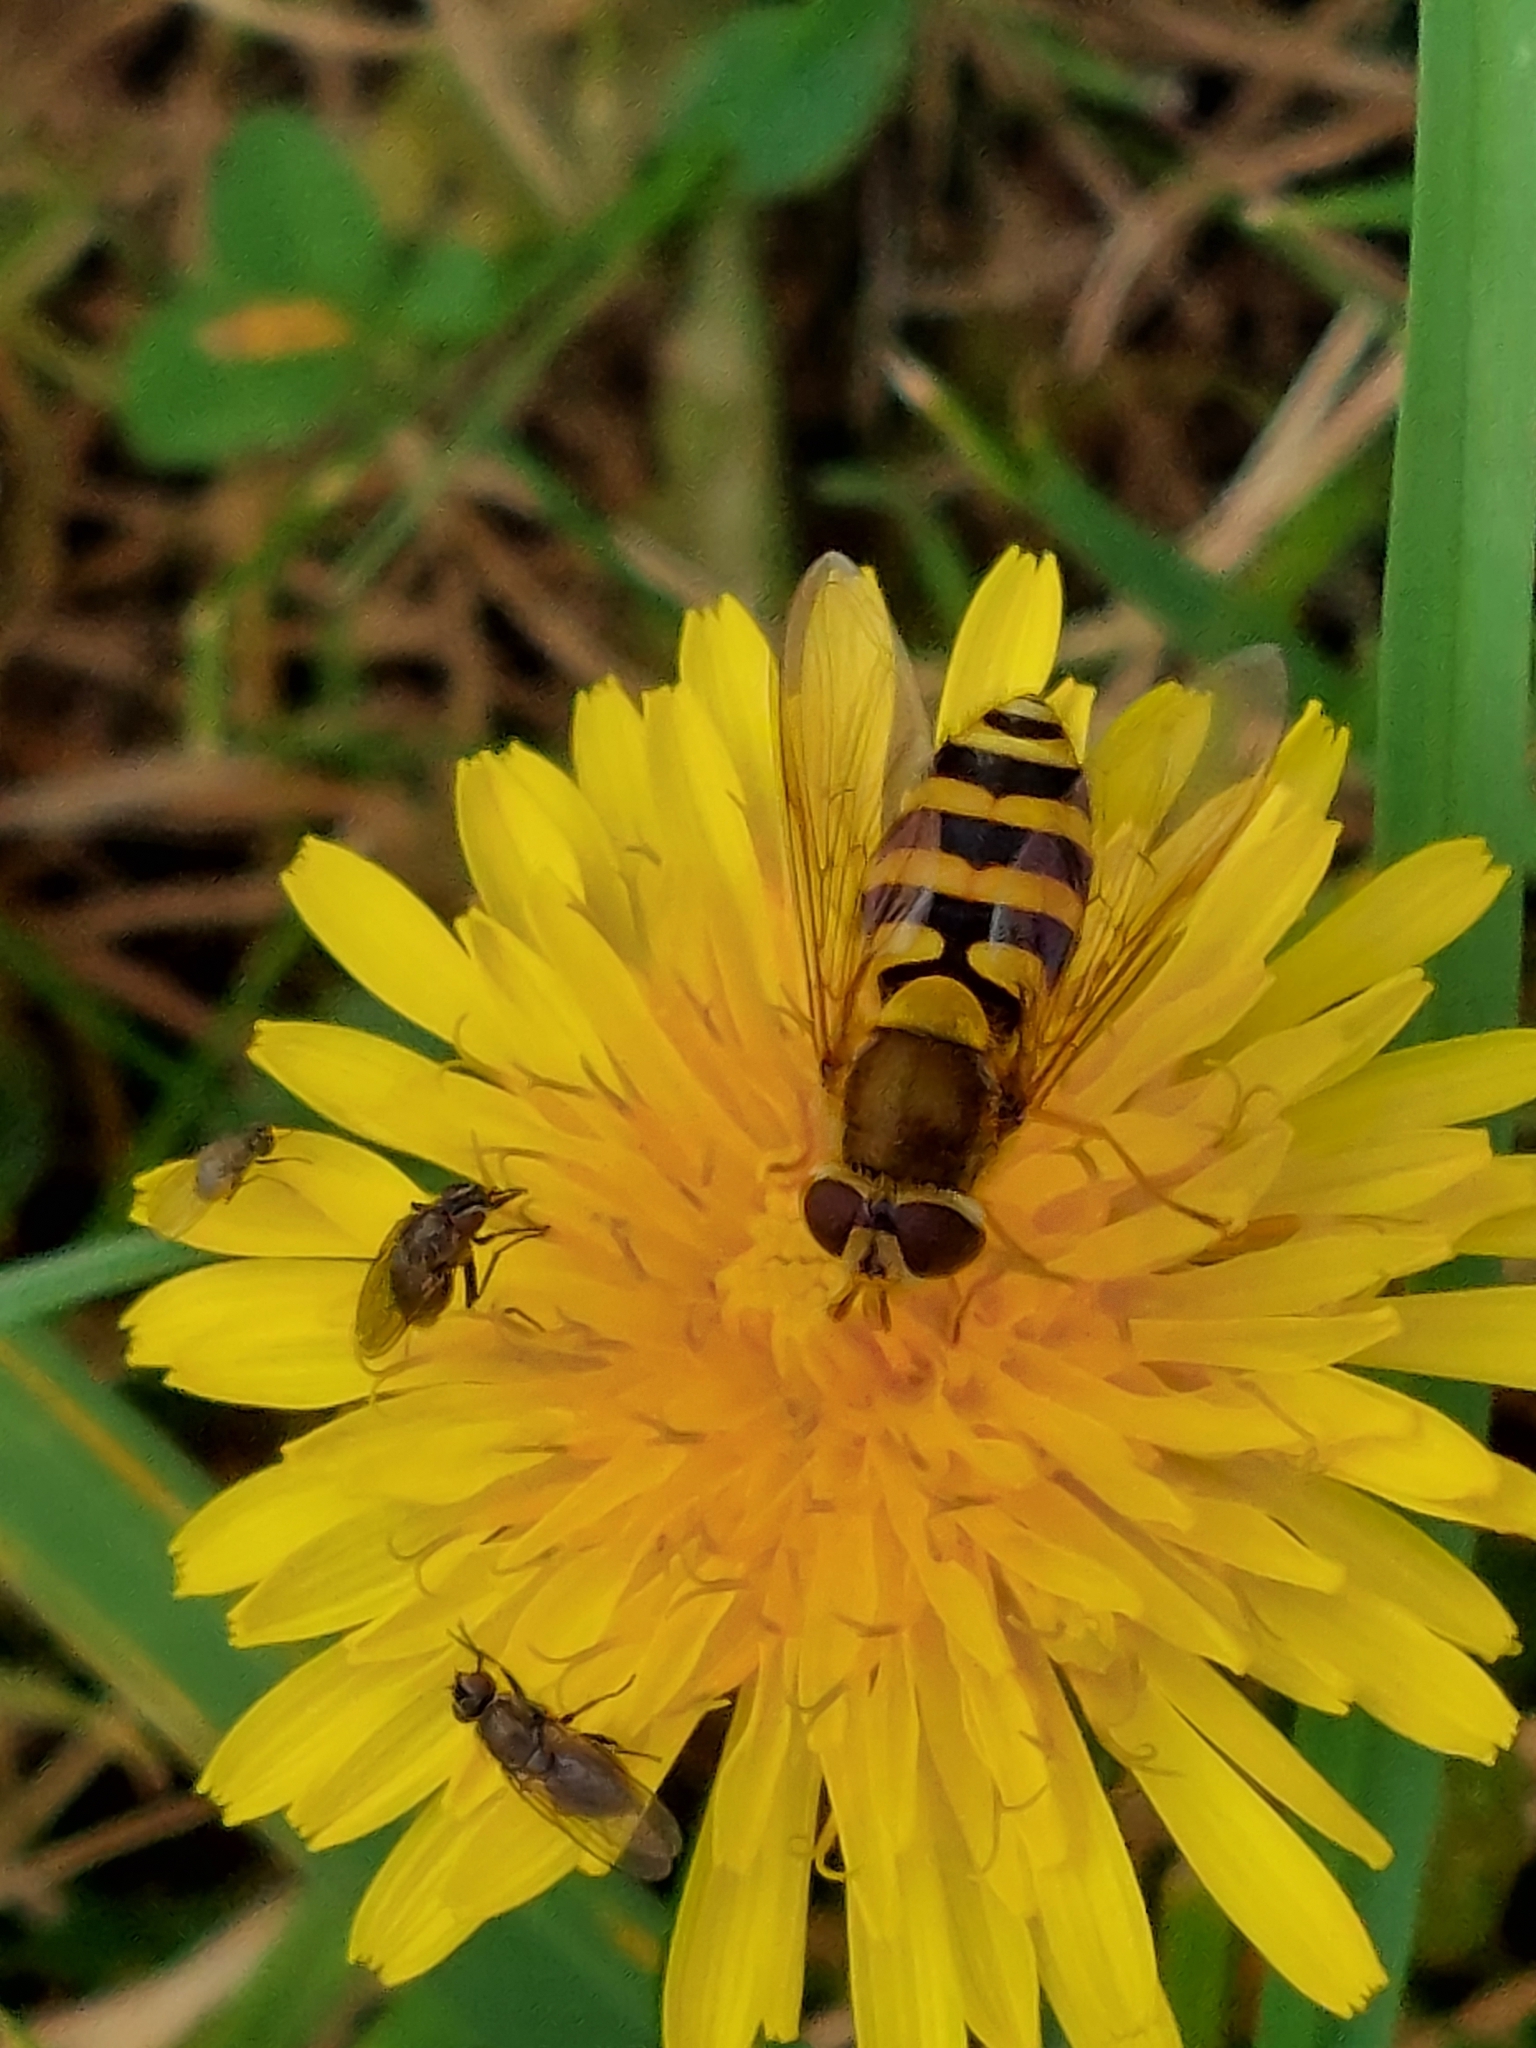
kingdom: Animalia
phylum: Arthropoda
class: Insecta
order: Diptera
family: Syrphidae
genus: Syrphus
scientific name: Syrphus
